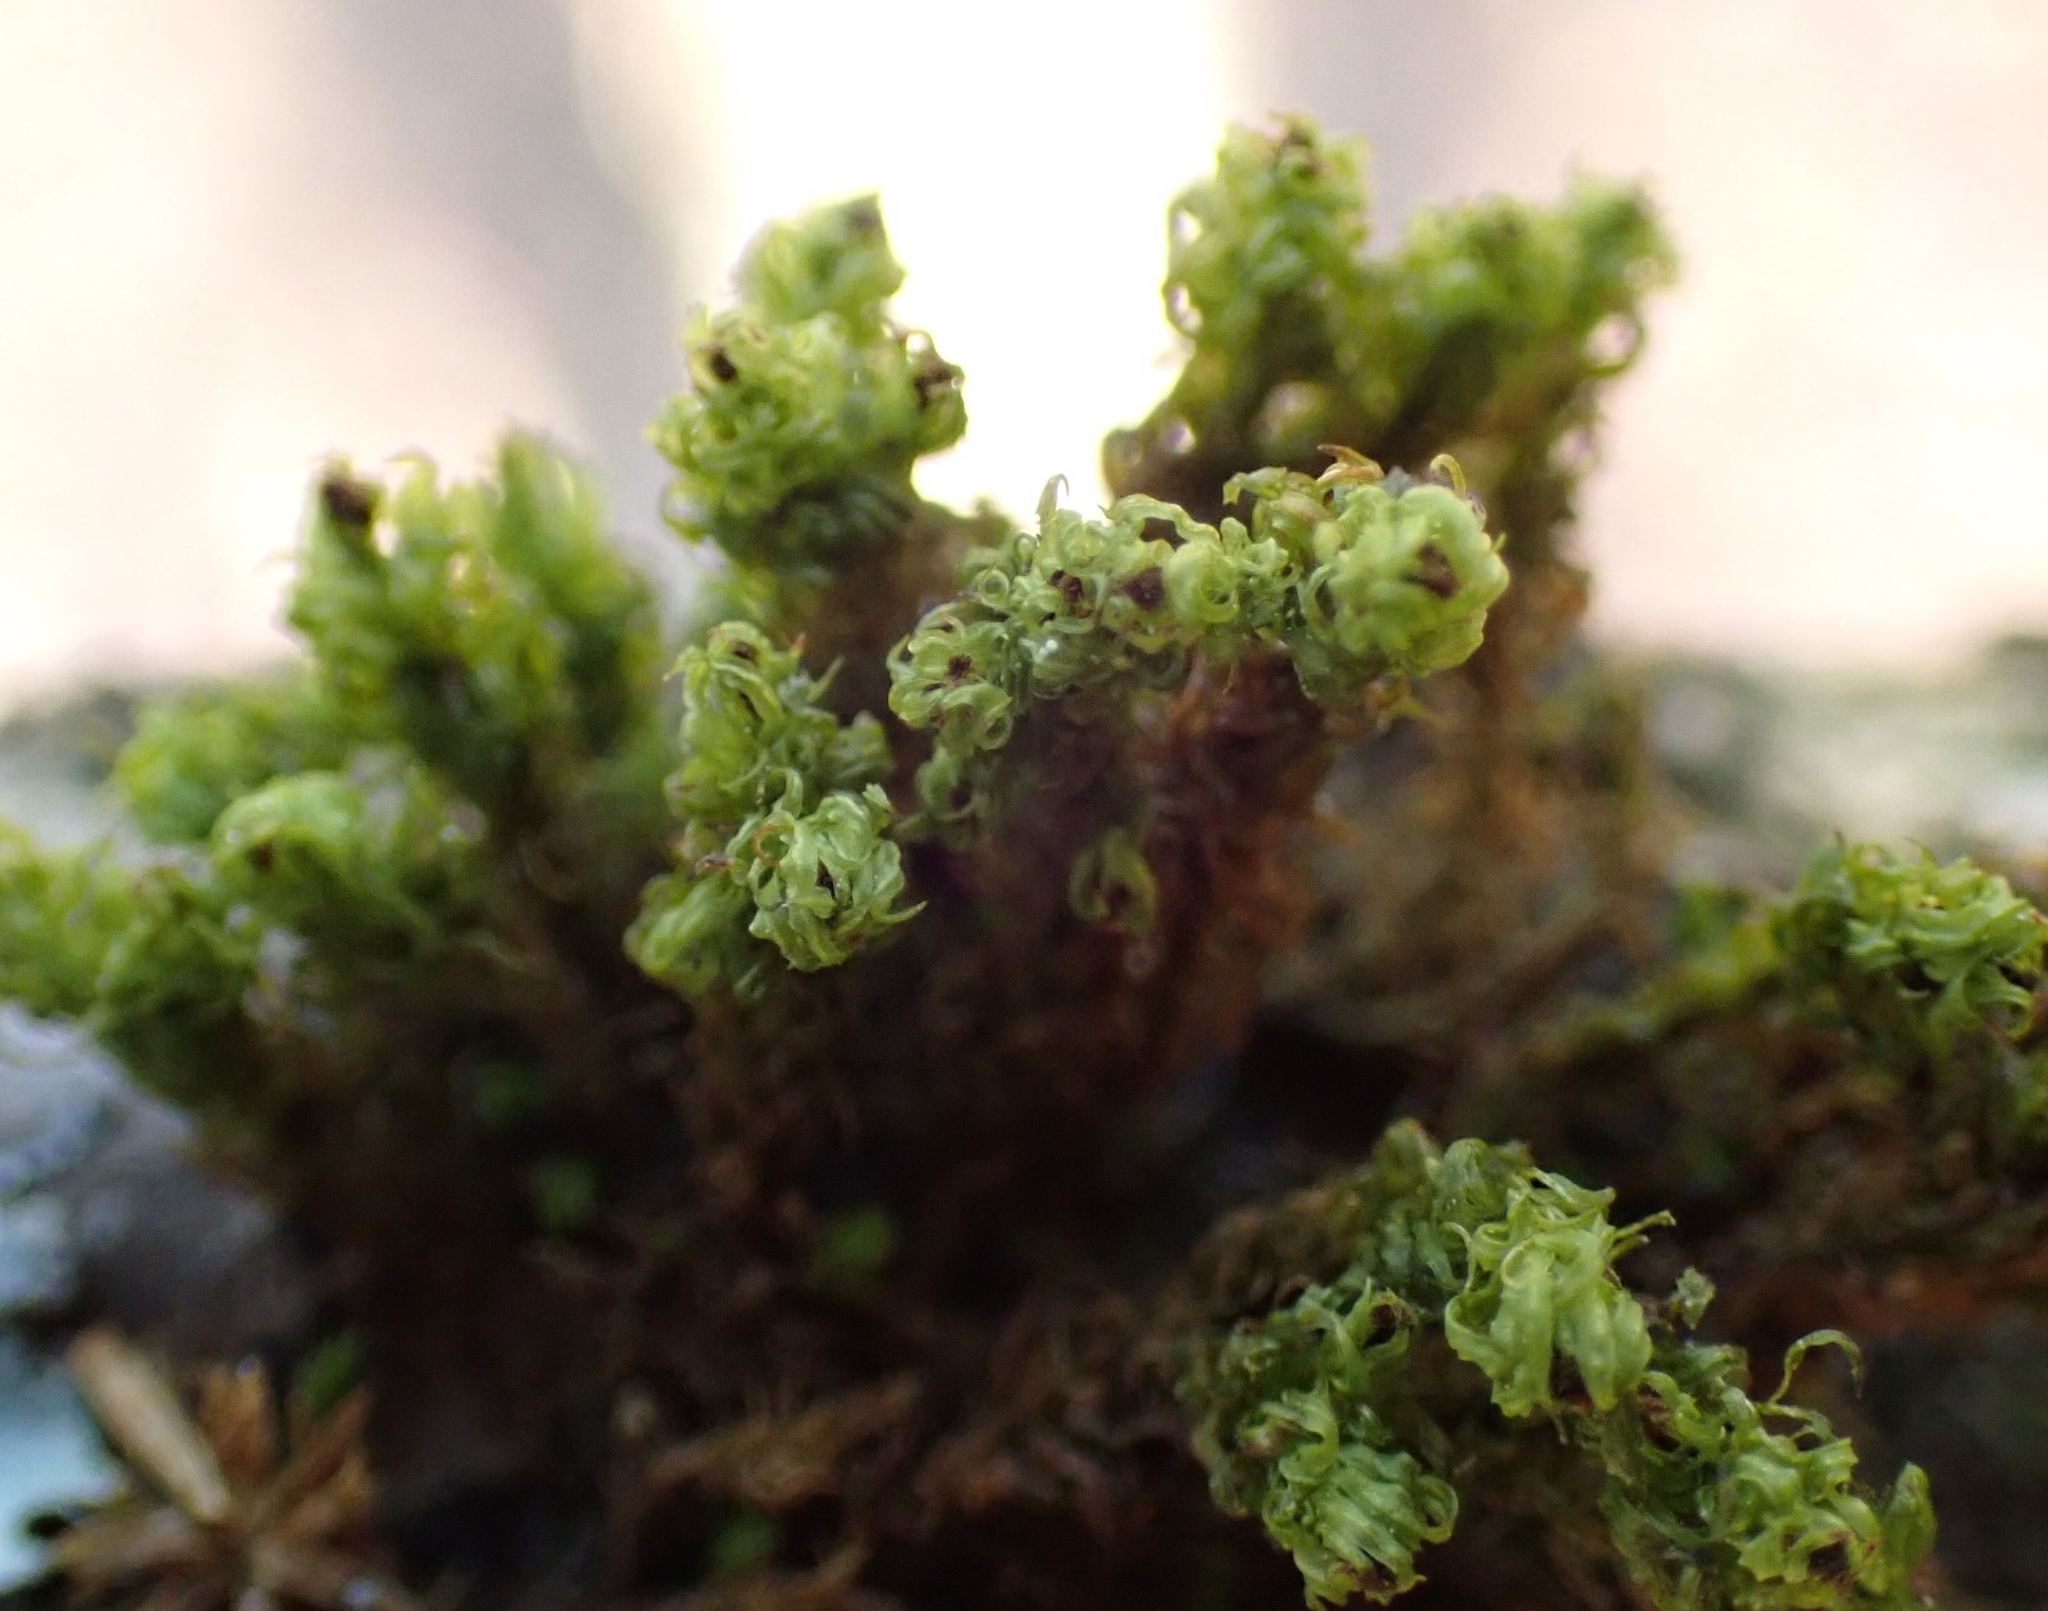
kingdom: Plantae
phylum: Bryophyta
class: Bryopsida
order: Orthotrichales
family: Orthotrichaceae
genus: Plenogemma
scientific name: Plenogemma phyllantha
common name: Frizzled pincushion
